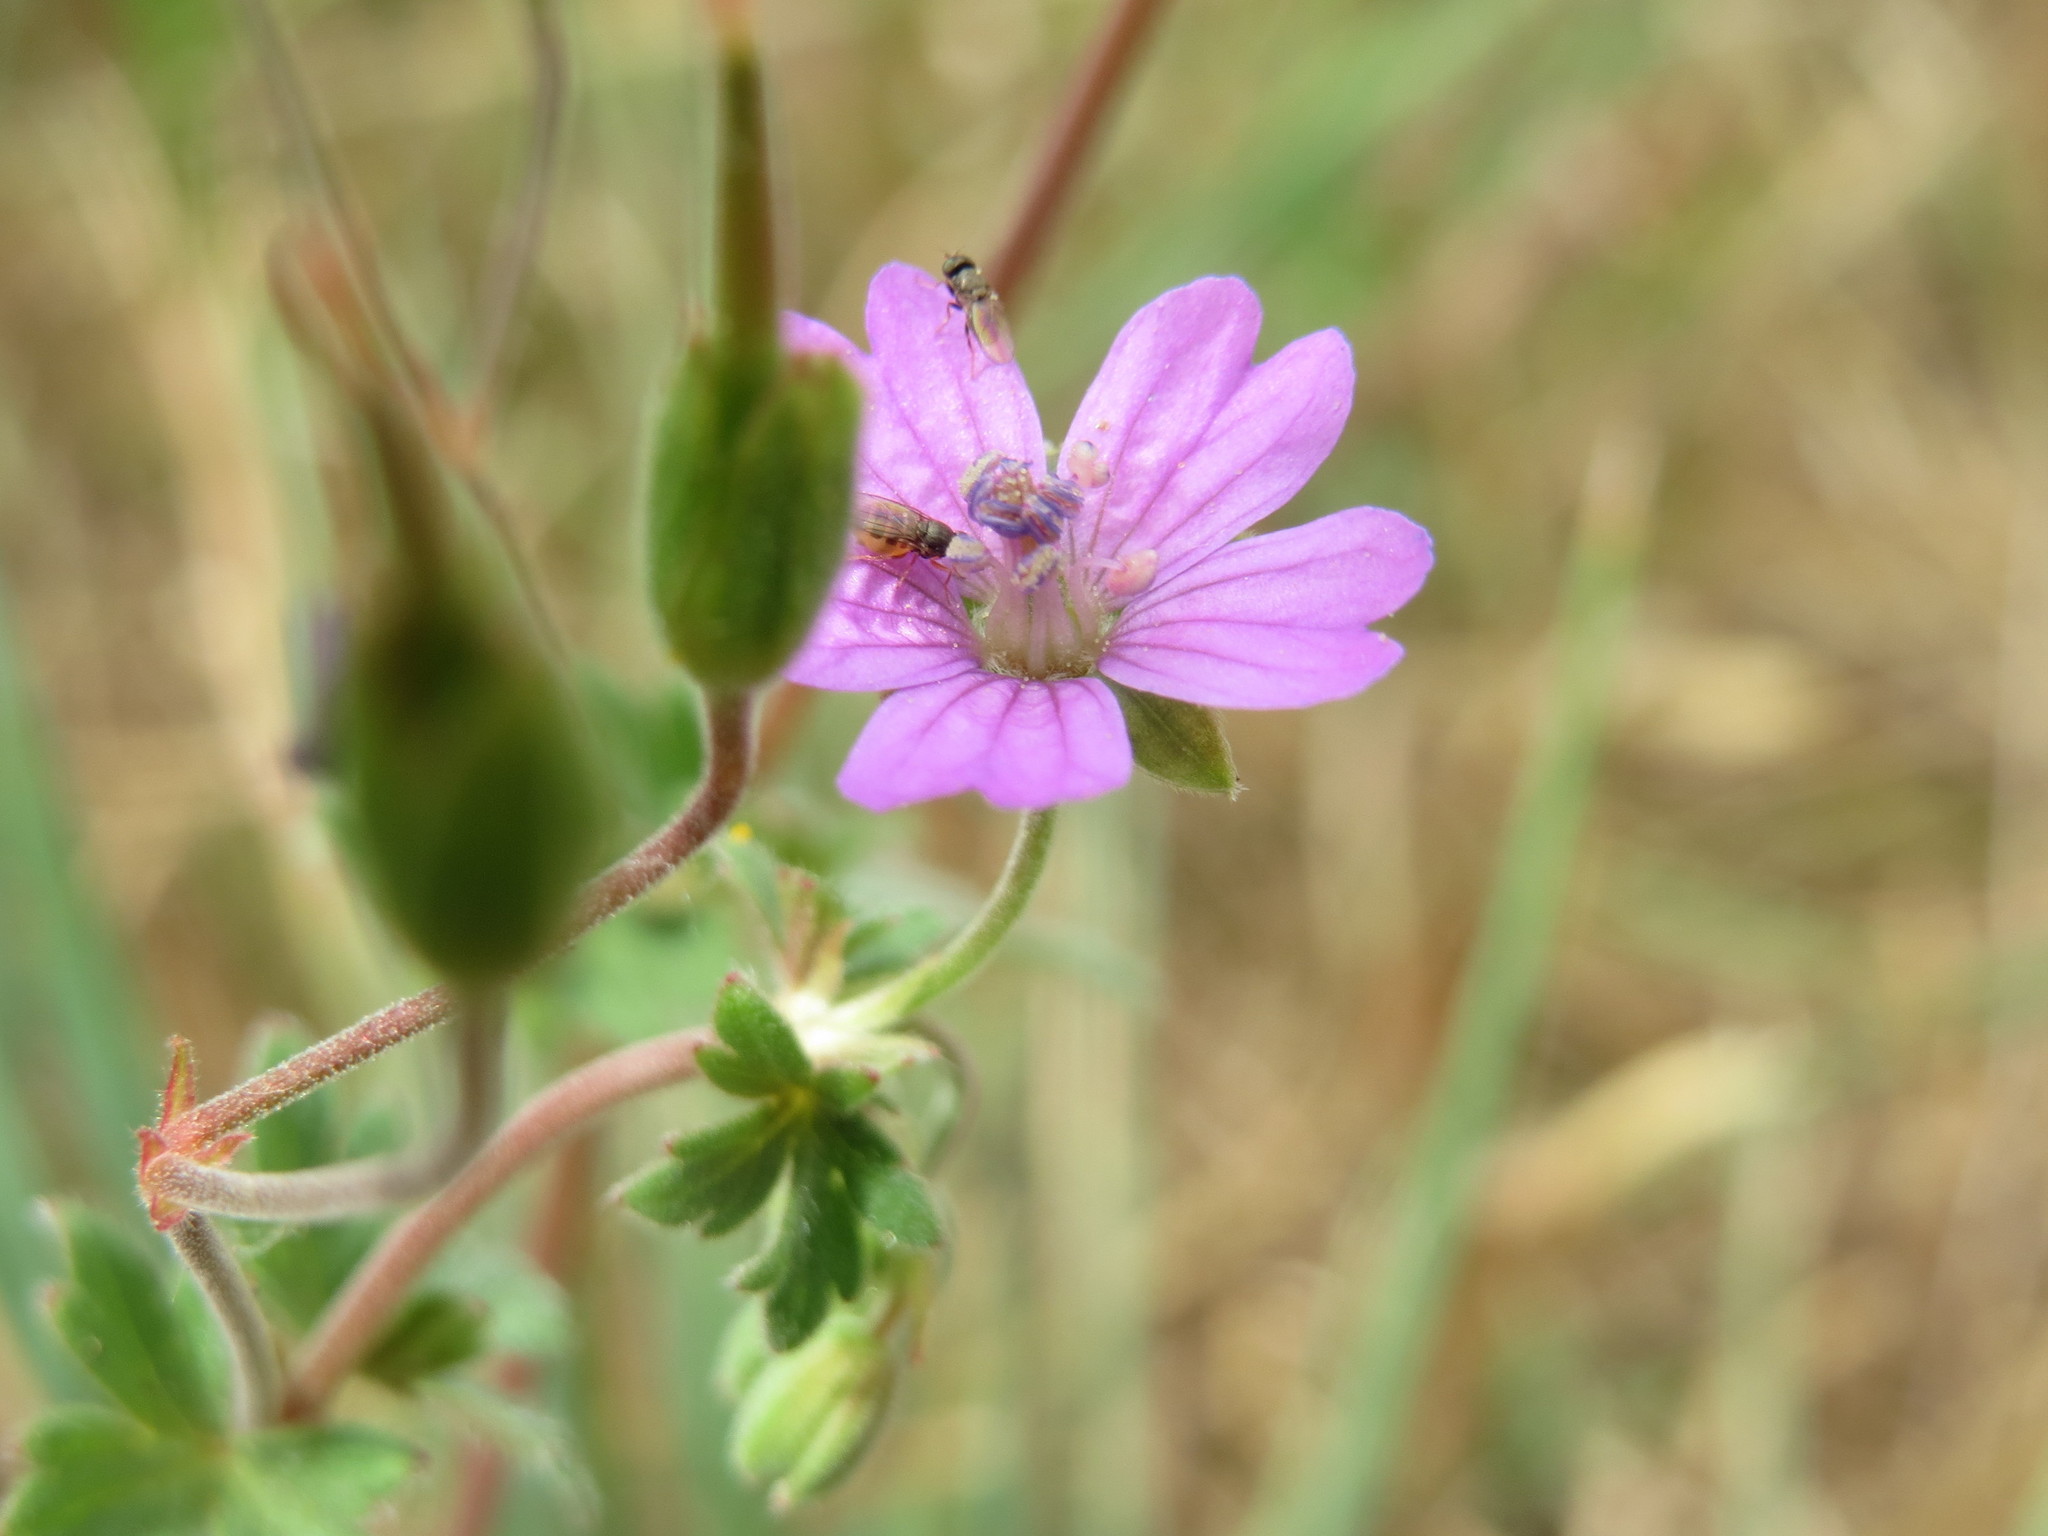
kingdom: Plantae
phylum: Tracheophyta
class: Magnoliopsida
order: Geraniales
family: Geraniaceae
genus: Geranium
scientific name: Geranium pyrenaicum
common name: Hedgerow crane's-bill
